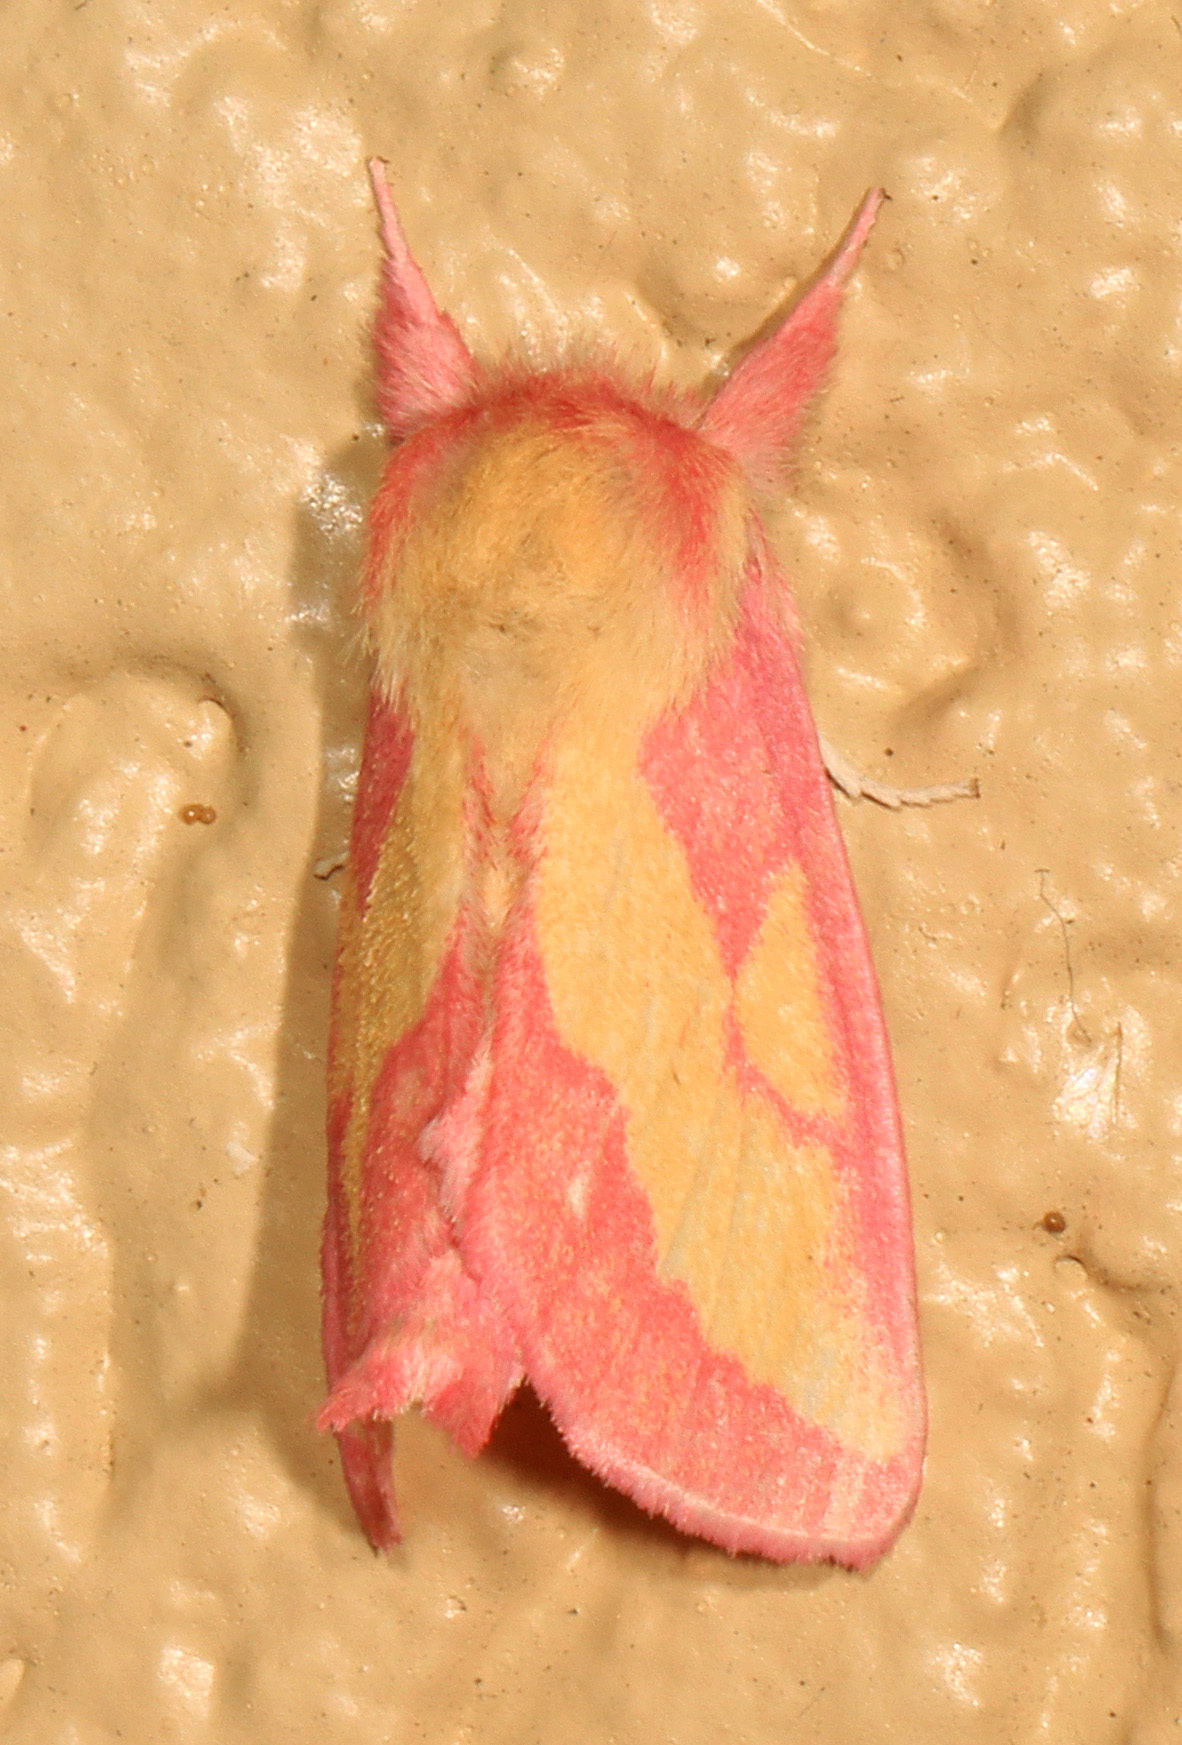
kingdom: Animalia
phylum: Arthropoda
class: Insecta
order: Lepidoptera
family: Notodontidae
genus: Hyparpax
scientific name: Hyparpax aurora
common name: Pink prominent
